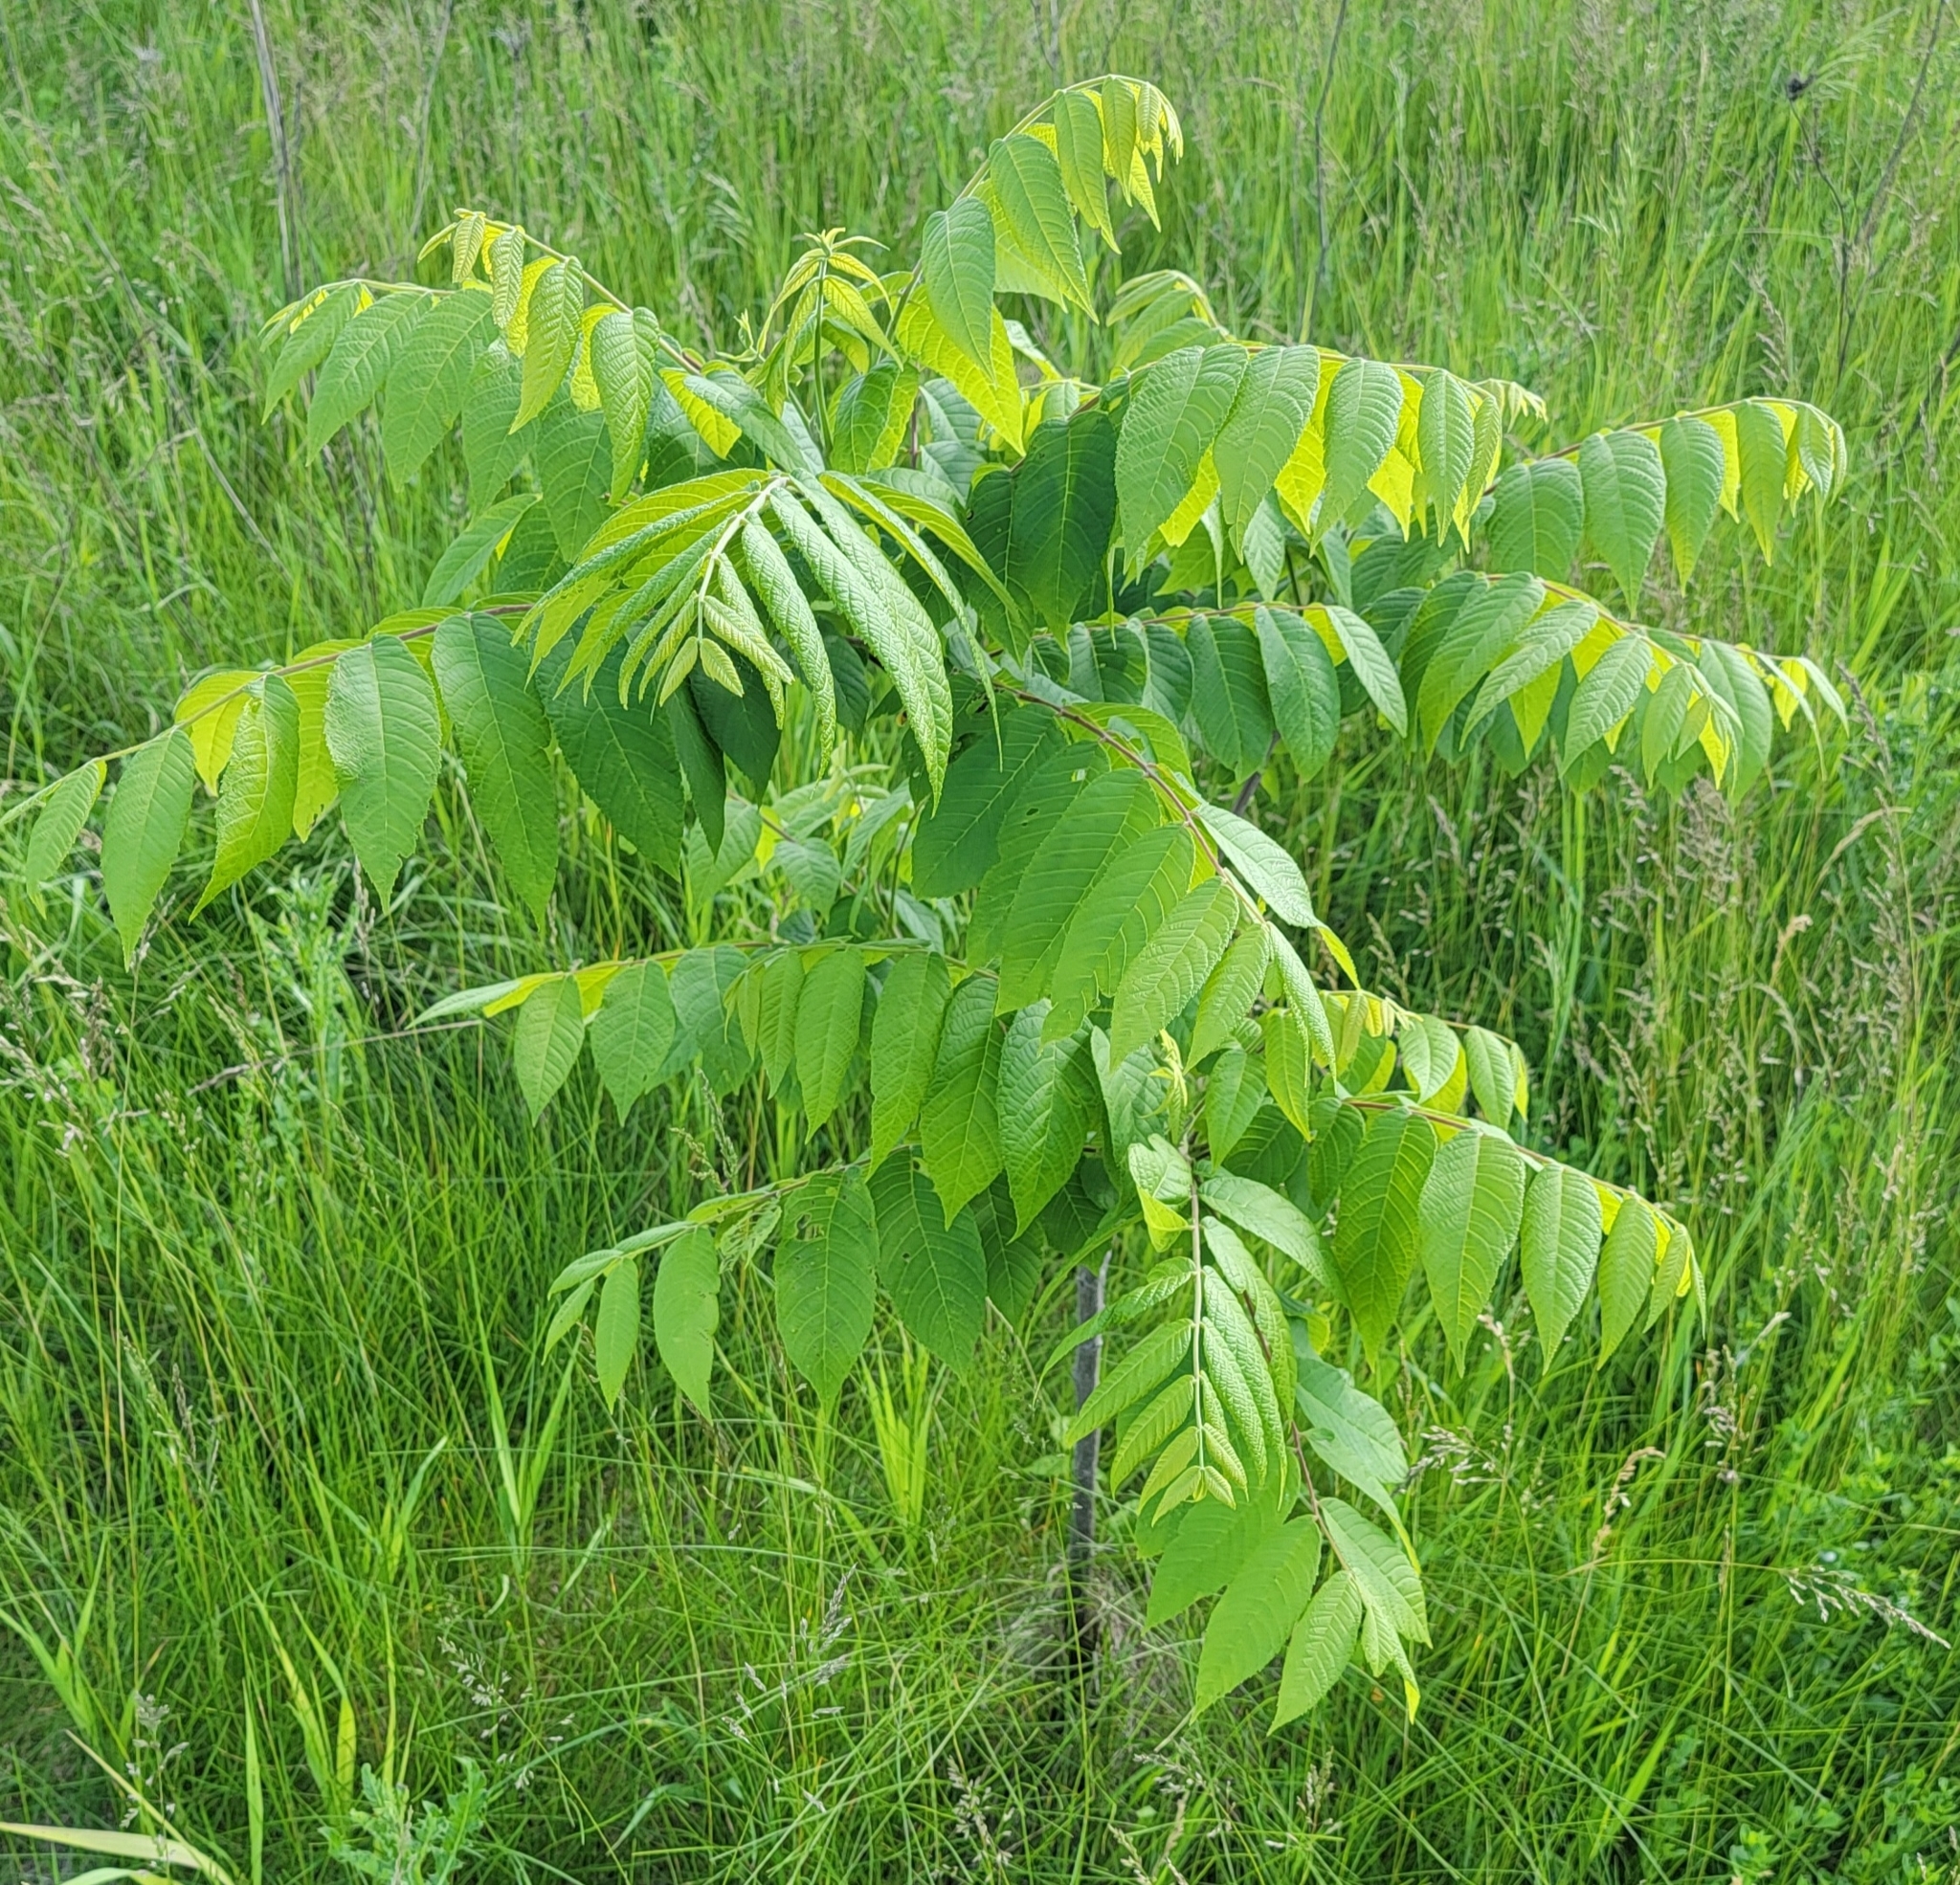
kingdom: Plantae
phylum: Tracheophyta
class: Magnoliopsida
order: Fagales
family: Juglandaceae
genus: Juglans
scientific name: Juglans nigra
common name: Black walnut
